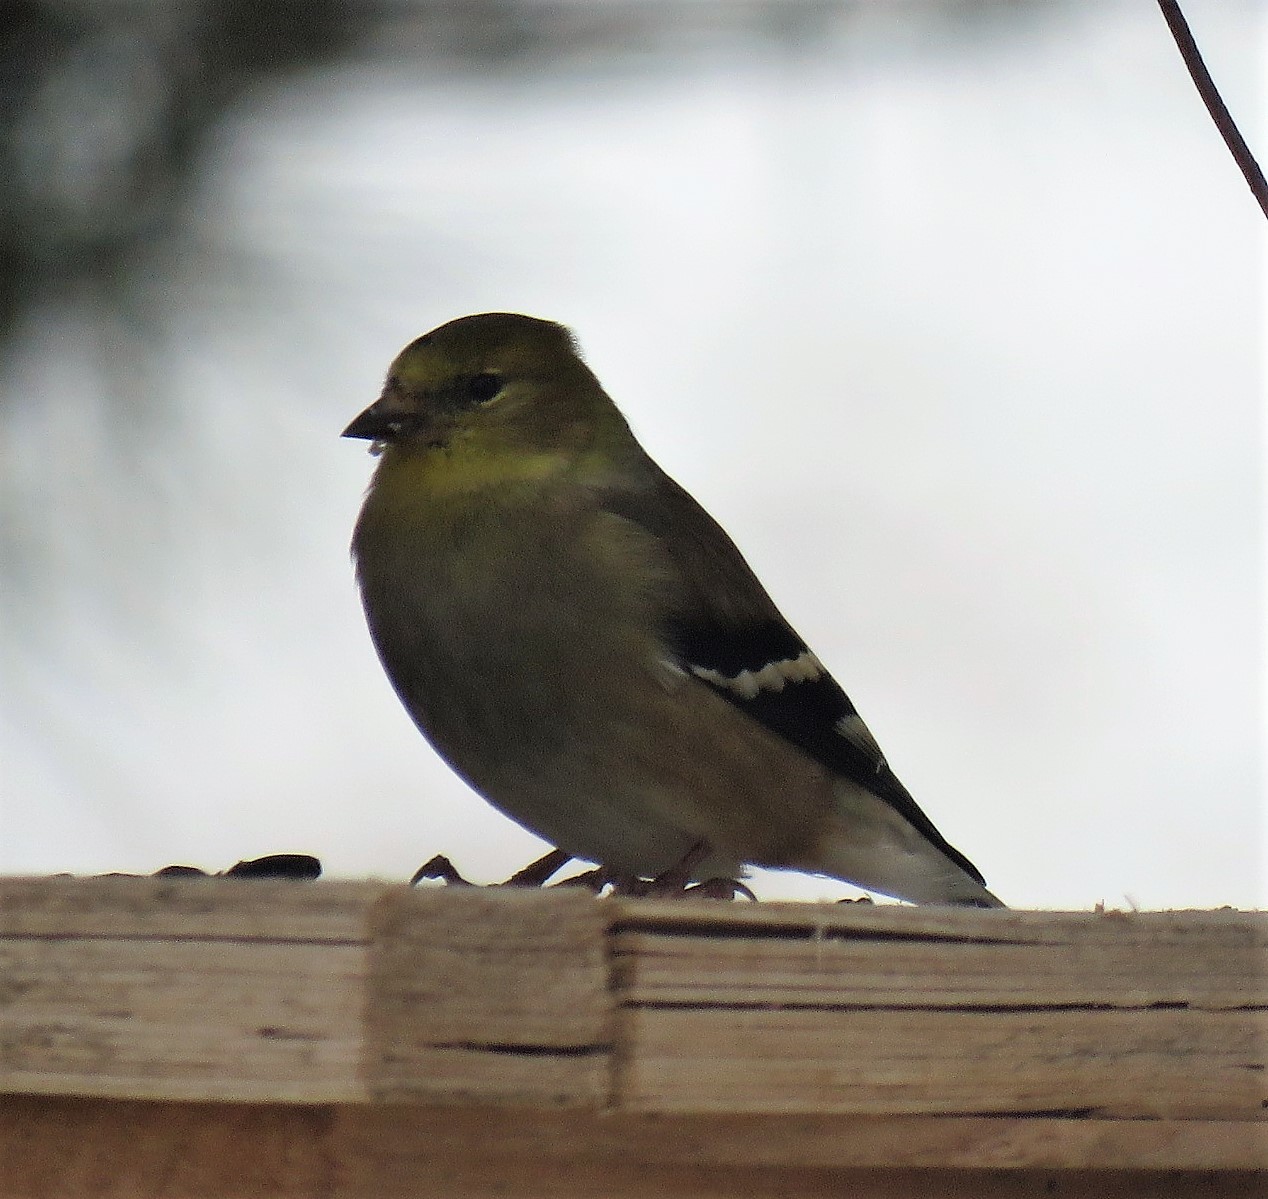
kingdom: Animalia
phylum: Chordata
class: Aves
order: Passeriformes
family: Fringillidae
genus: Spinus
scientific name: Spinus tristis
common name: American goldfinch
